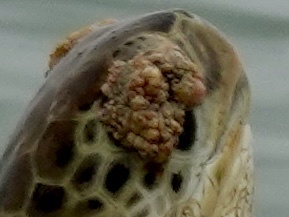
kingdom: Viruses
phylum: Peploviricota
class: Herviviricetes
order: Herpesvirales
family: Herpesviridae
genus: Scutavirus
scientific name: Scutavirus
